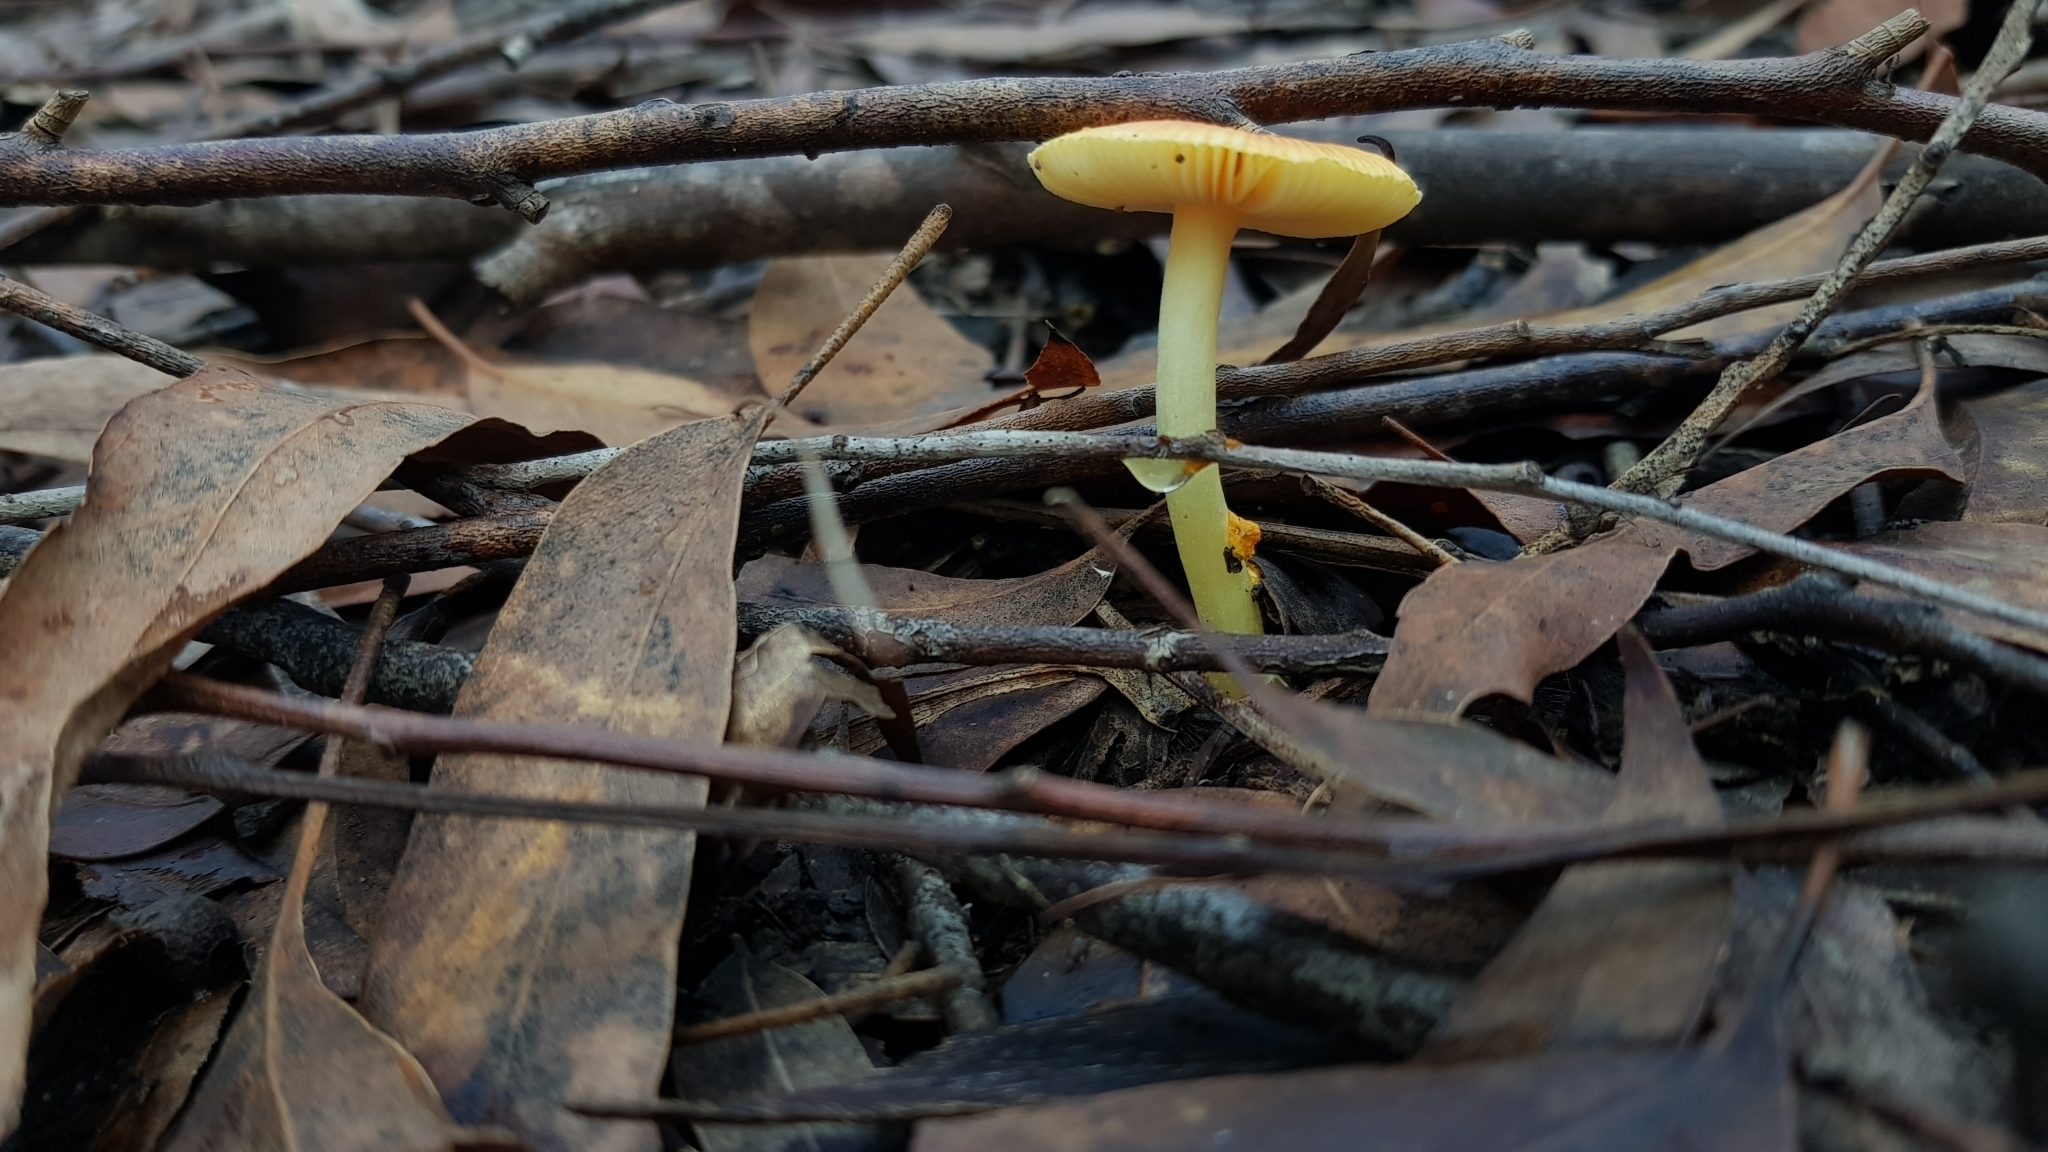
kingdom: Fungi
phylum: Basidiomycota
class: Agaricomycetes
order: Agaricales
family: Amanitaceae
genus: Amanita
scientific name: Amanita xanthocephala
